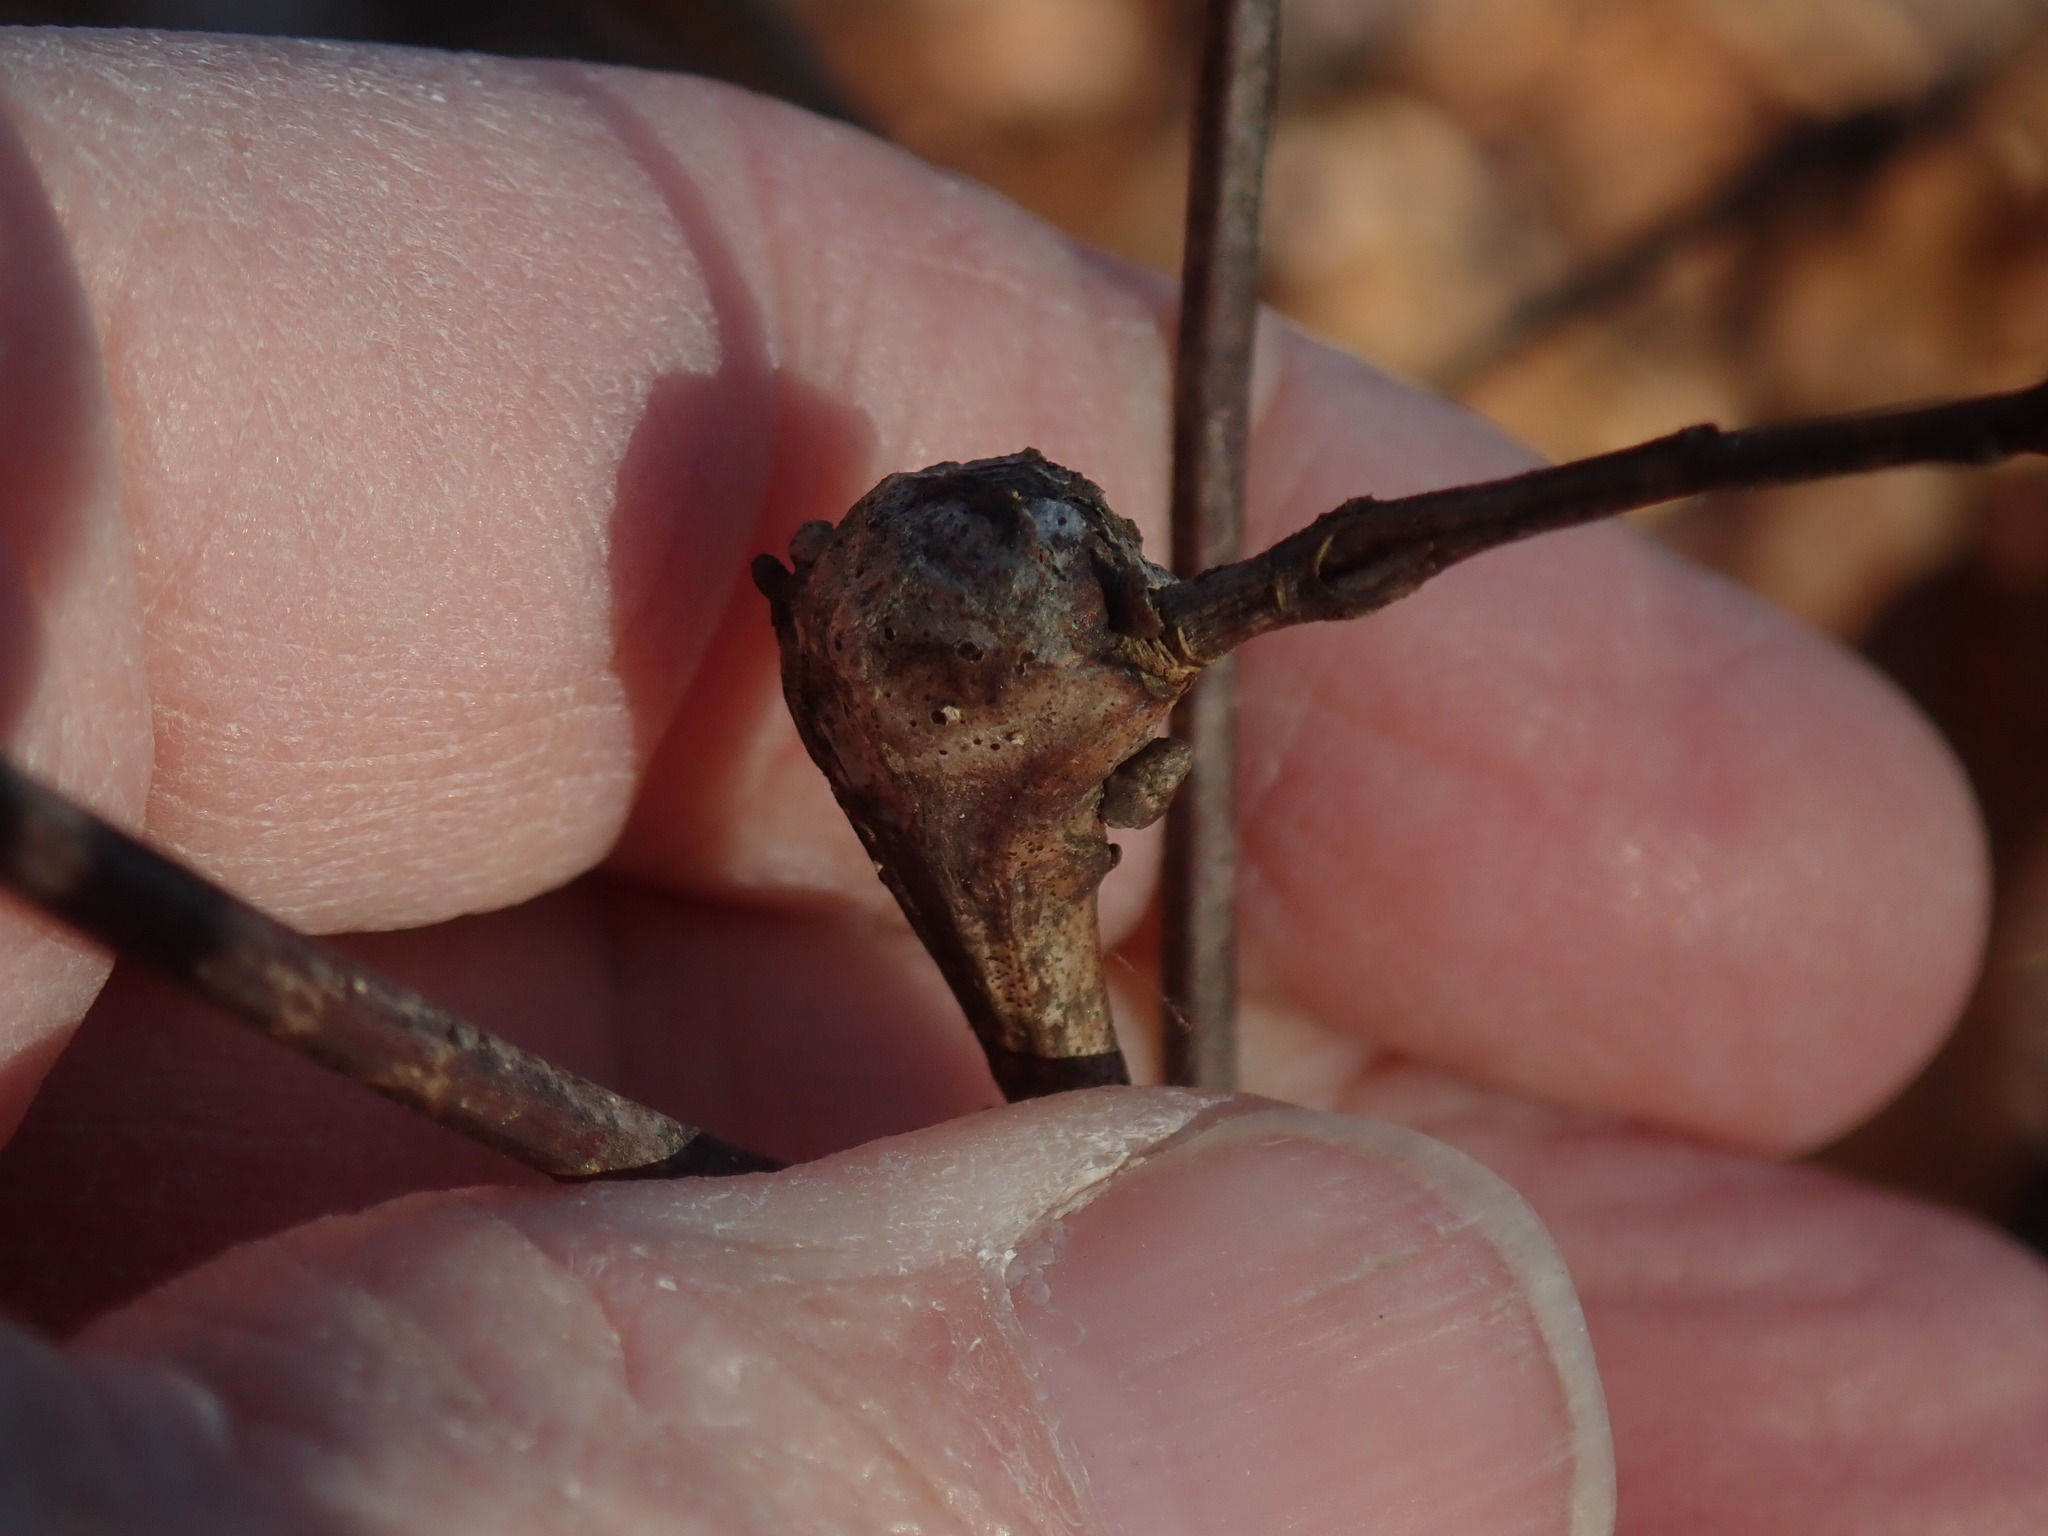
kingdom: Animalia
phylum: Arthropoda
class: Insecta
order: Hymenoptera
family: Cynipidae
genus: Callirhytis
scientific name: Callirhytis clavula
